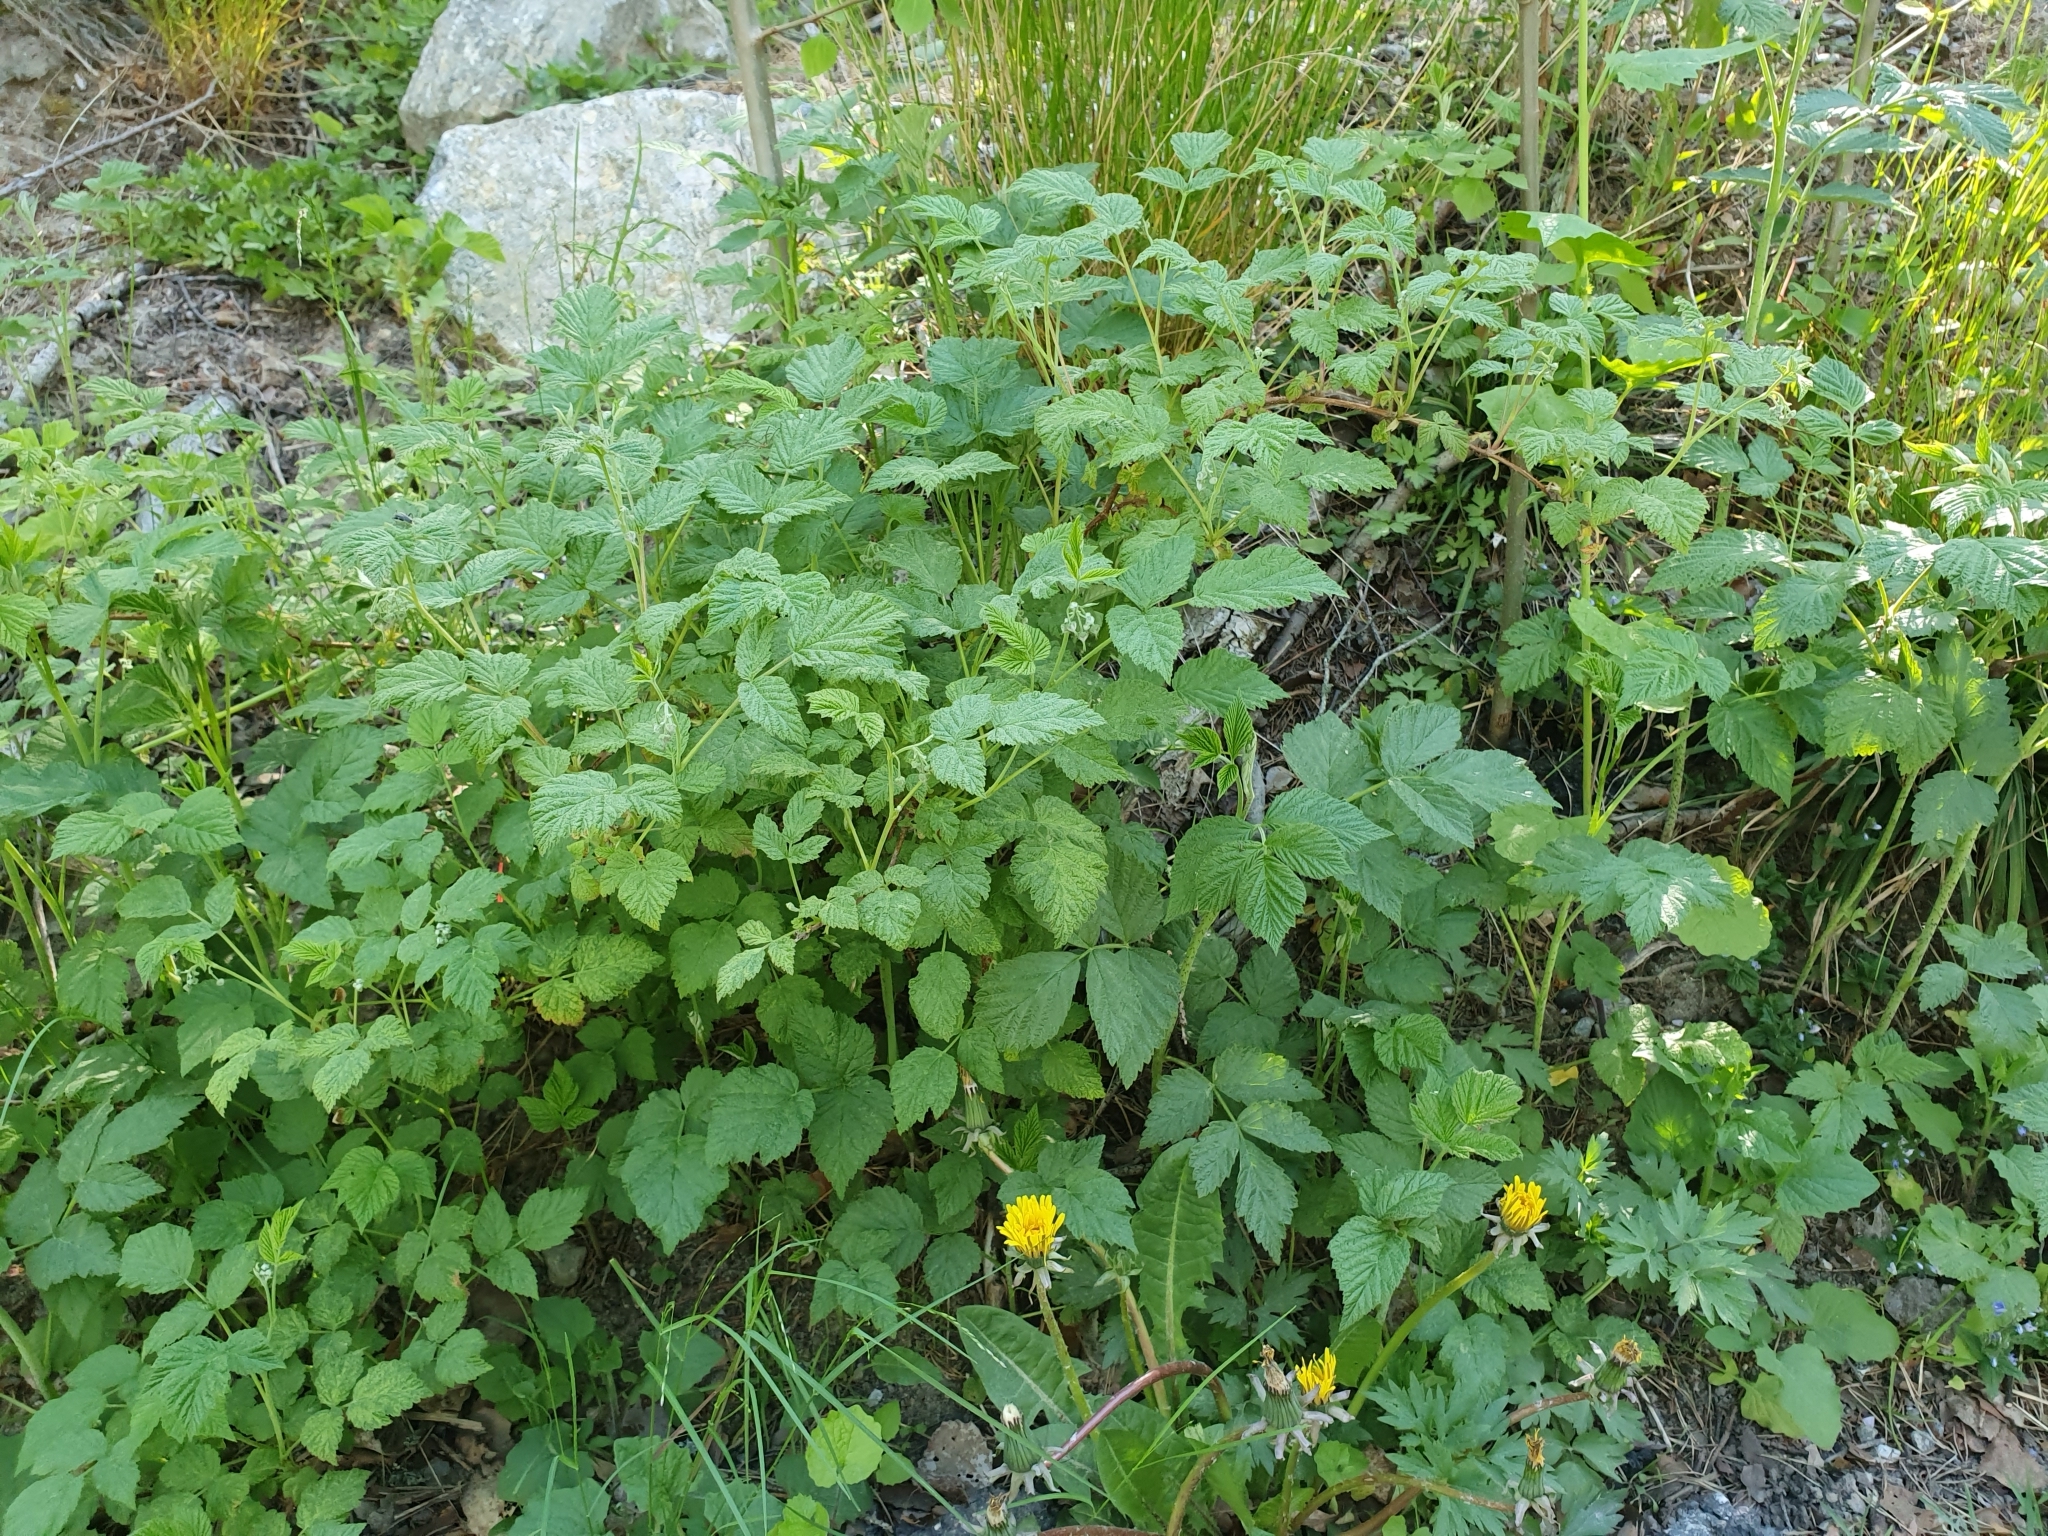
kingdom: Plantae
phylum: Tracheophyta
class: Magnoliopsida
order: Rosales
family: Rosaceae
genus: Rubus
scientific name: Rubus idaeus
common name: Raspberry
